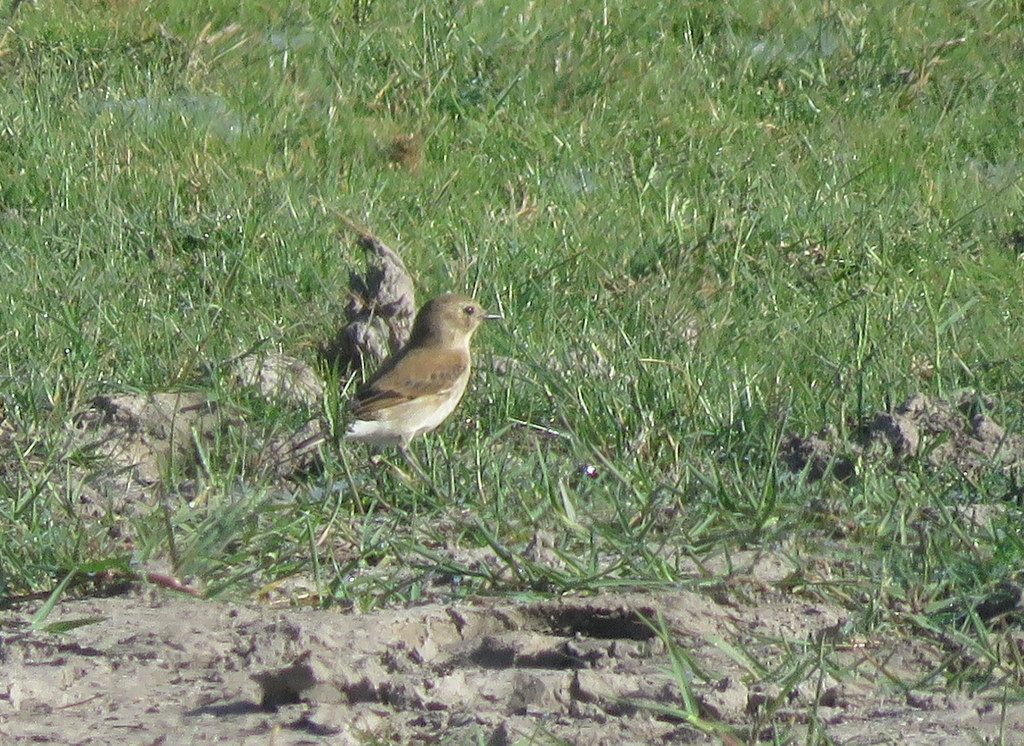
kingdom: Animalia
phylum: Chordata
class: Aves
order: Passeriformes
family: Tyrannidae
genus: Lessonia
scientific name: Lessonia rufa
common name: Austral negrito
